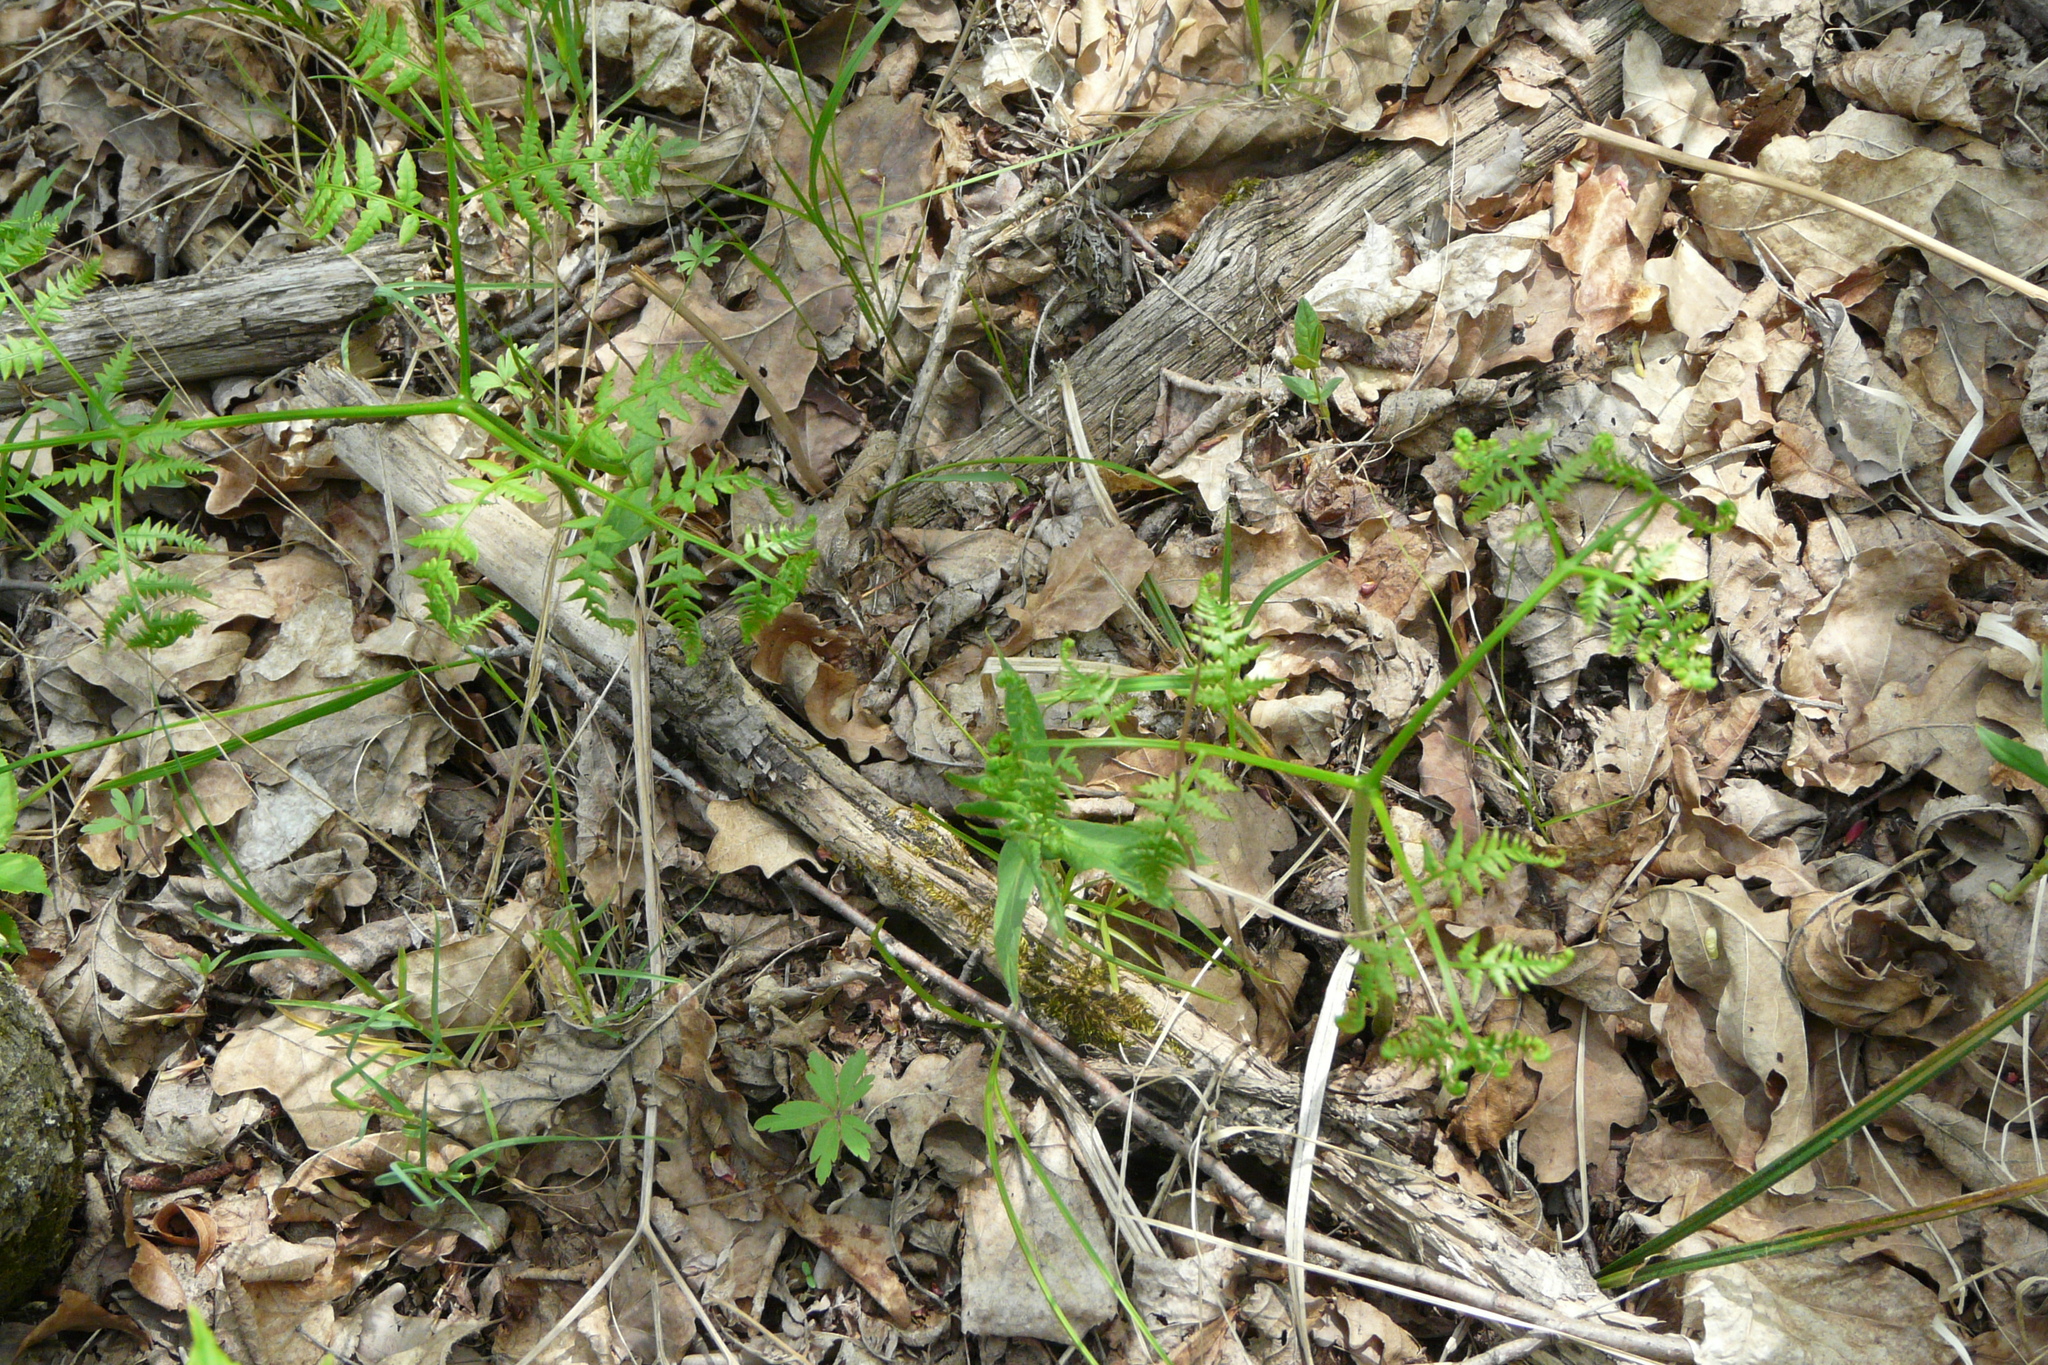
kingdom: Plantae
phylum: Tracheophyta
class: Polypodiopsida
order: Polypodiales
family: Dennstaedtiaceae
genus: Pteridium
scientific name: Pteridium aquilinum
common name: Bracken
